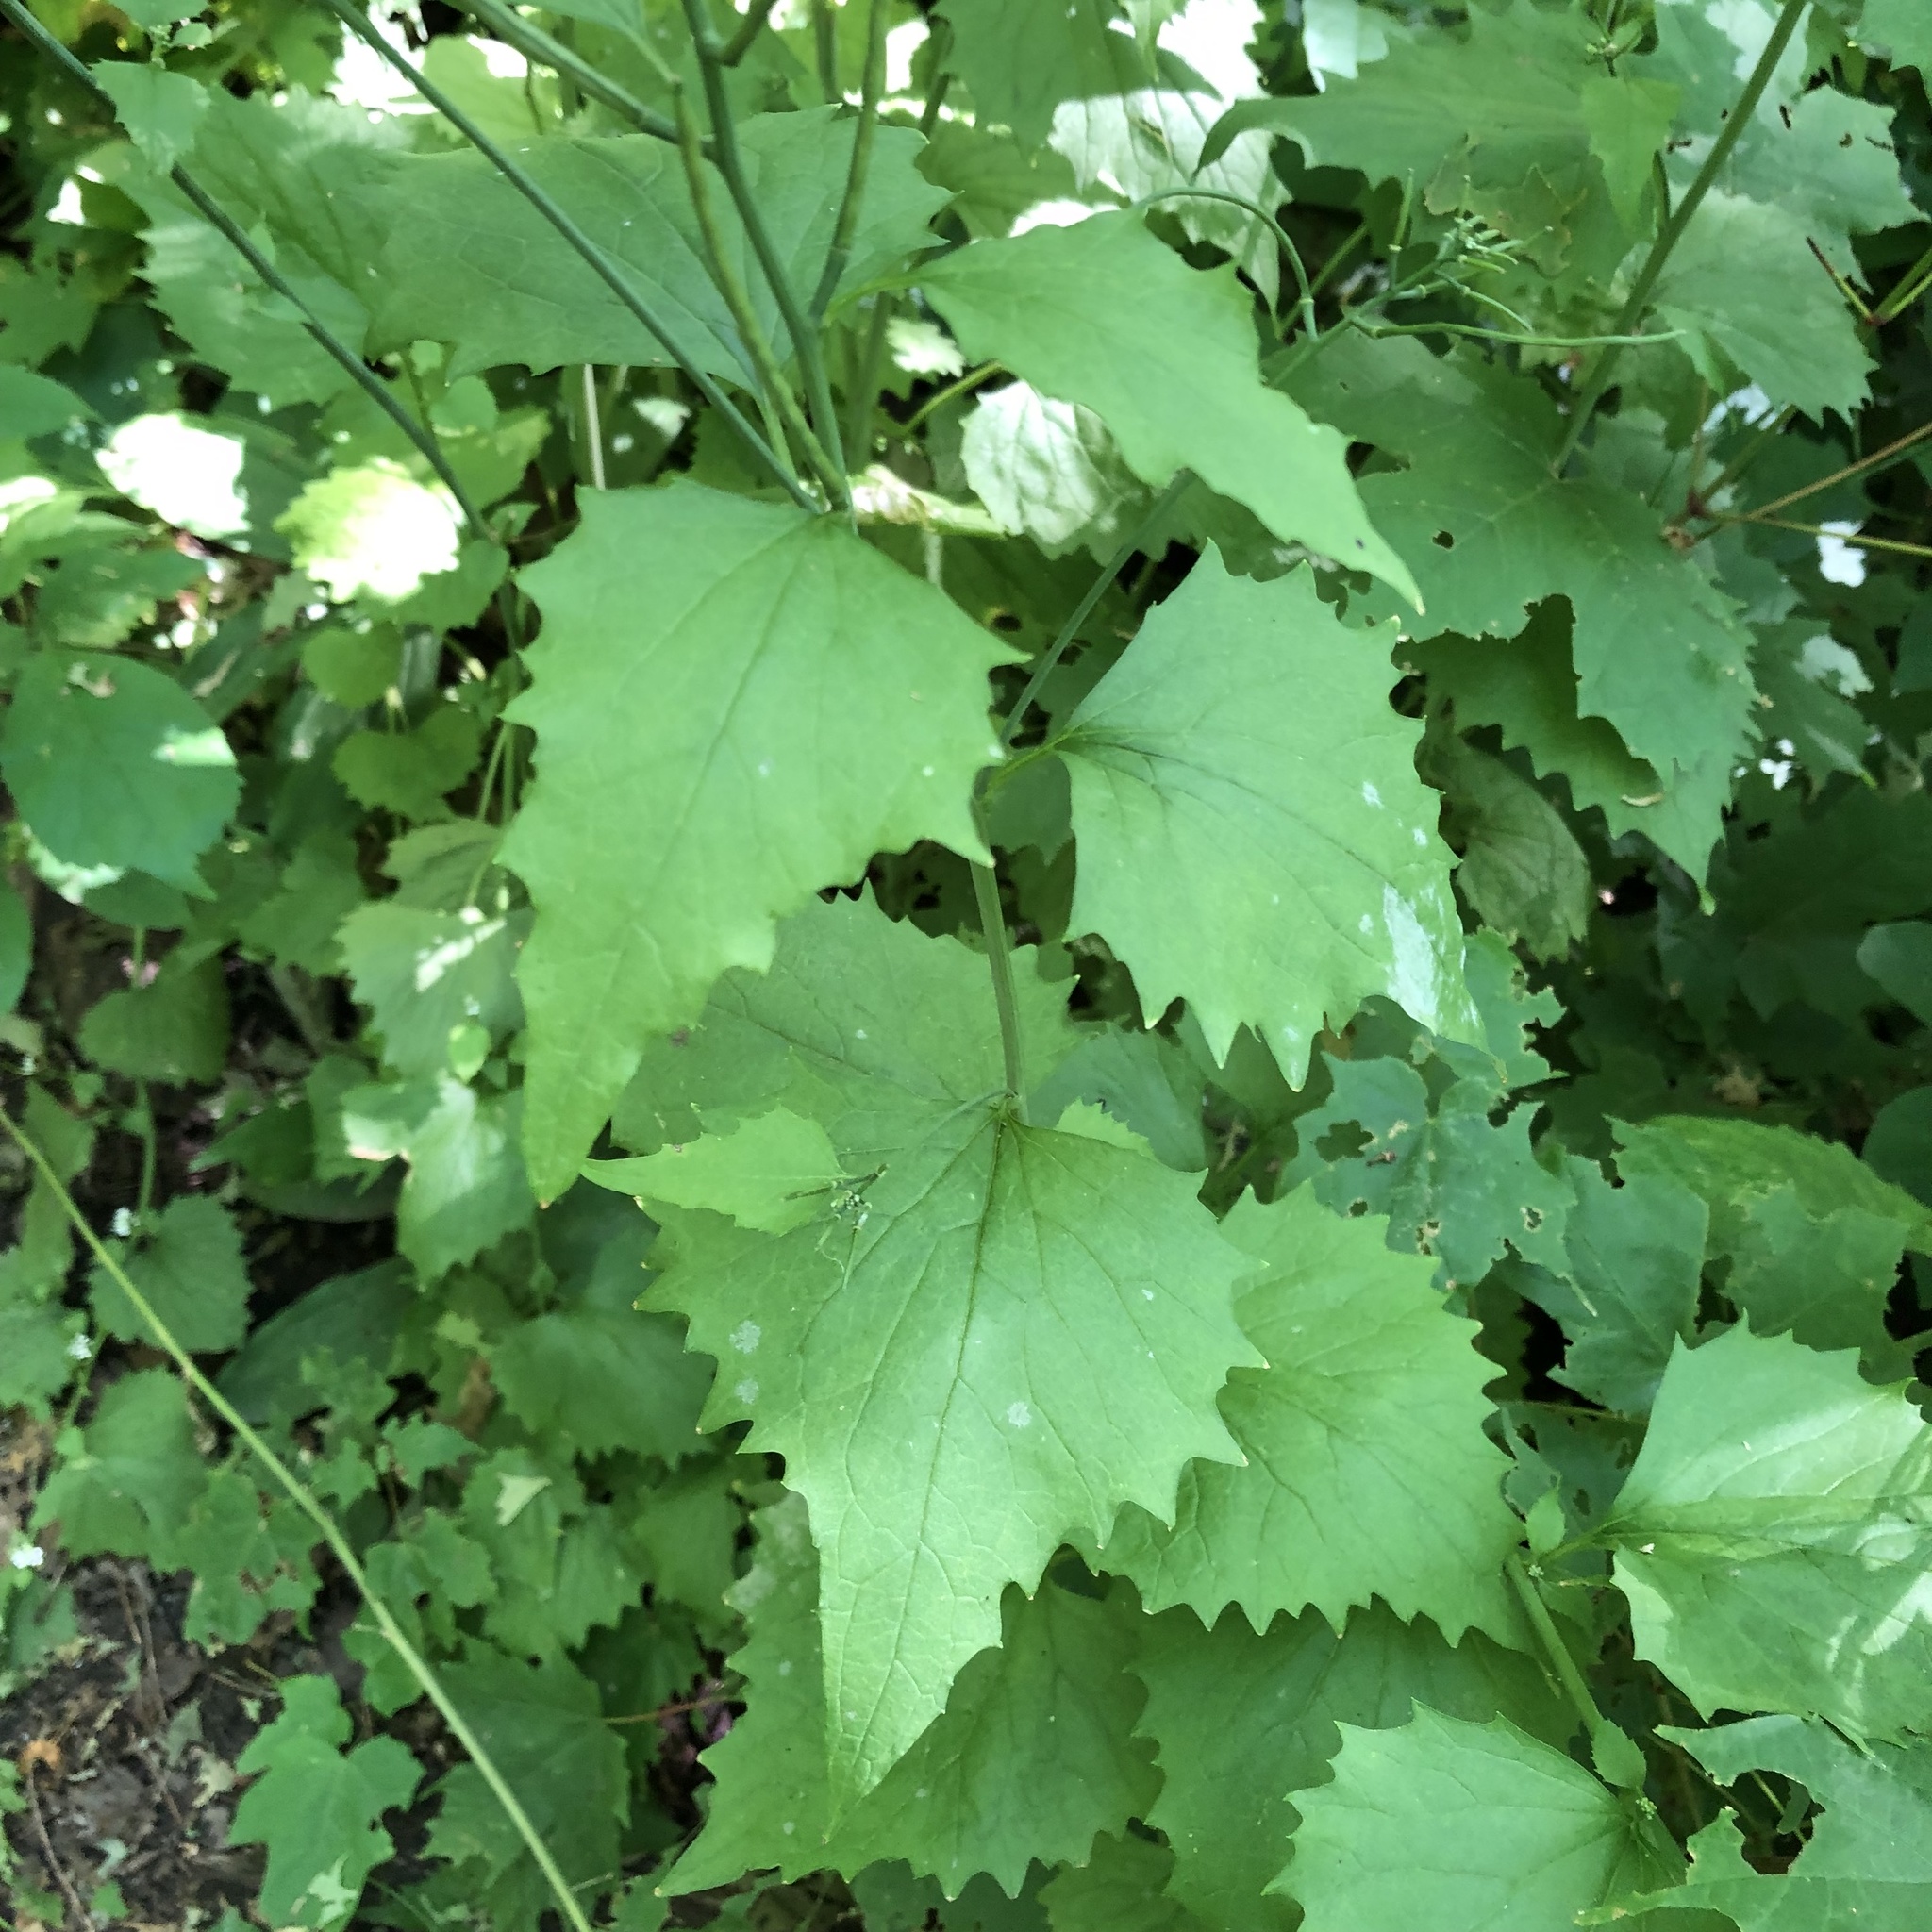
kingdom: Plantae
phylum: Tracheophyta
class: Magnoliopsida
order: Brassicales
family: Brassicaceae
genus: Alliaria
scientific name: Alliaria petiolata
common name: Garlic mustard
